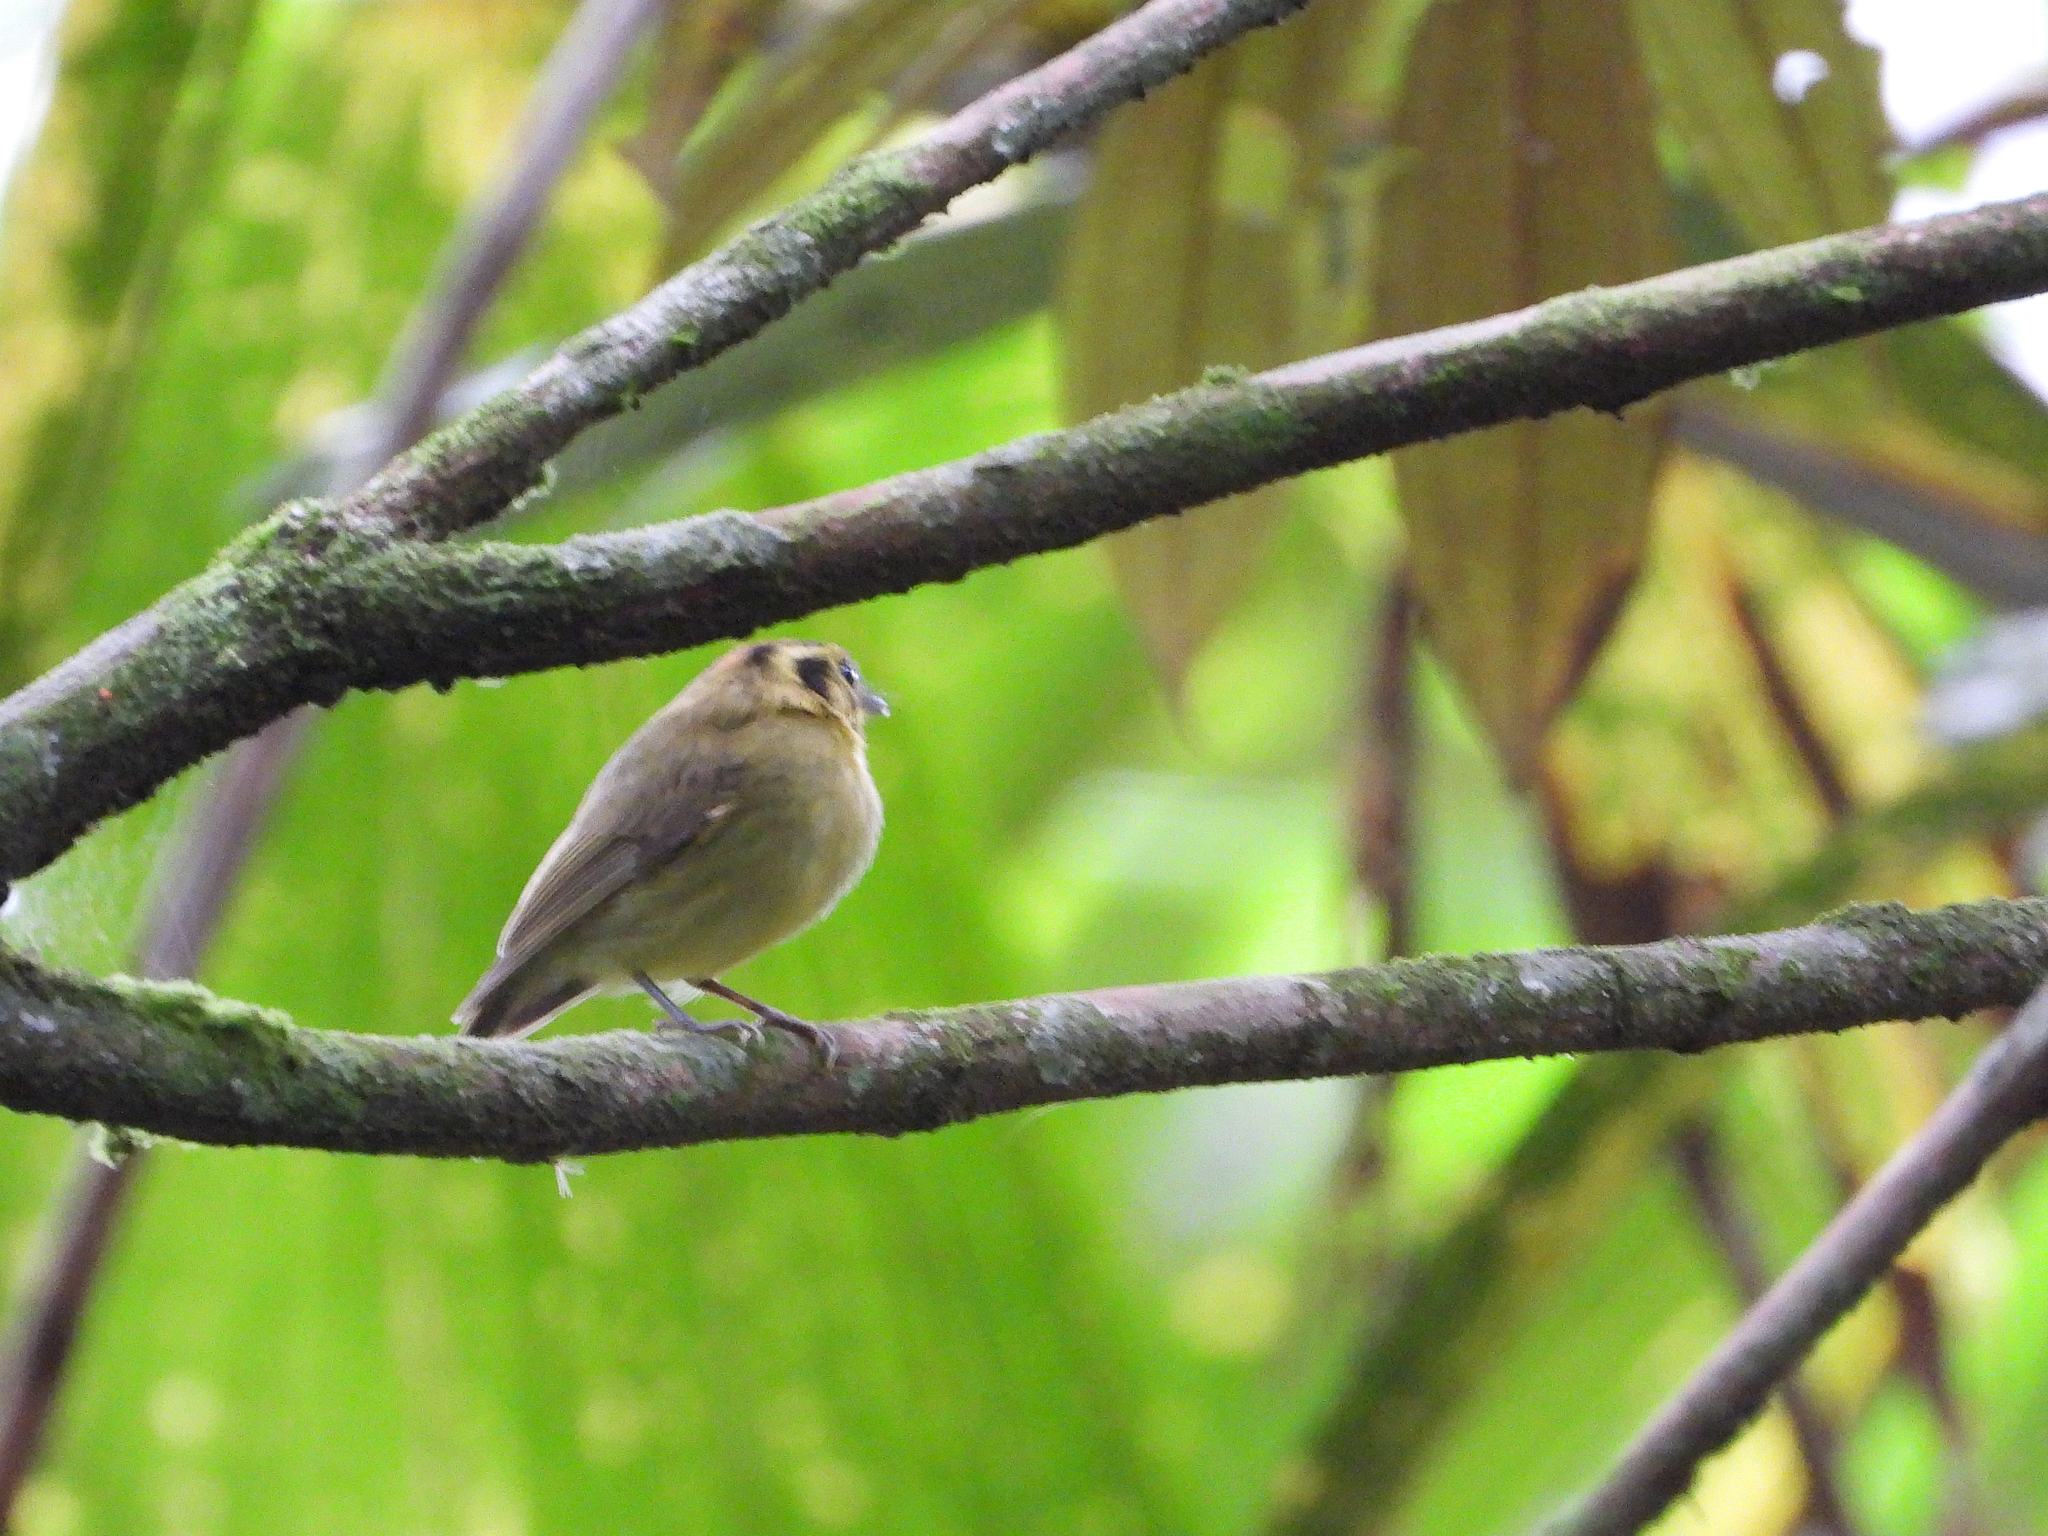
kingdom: Animalia
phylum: Chordata
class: Aves
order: Passeriformes
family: Tyrannidae
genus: Platyrinchus
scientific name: Platyrinchus coronatus
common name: Golden-crowned spadebill
